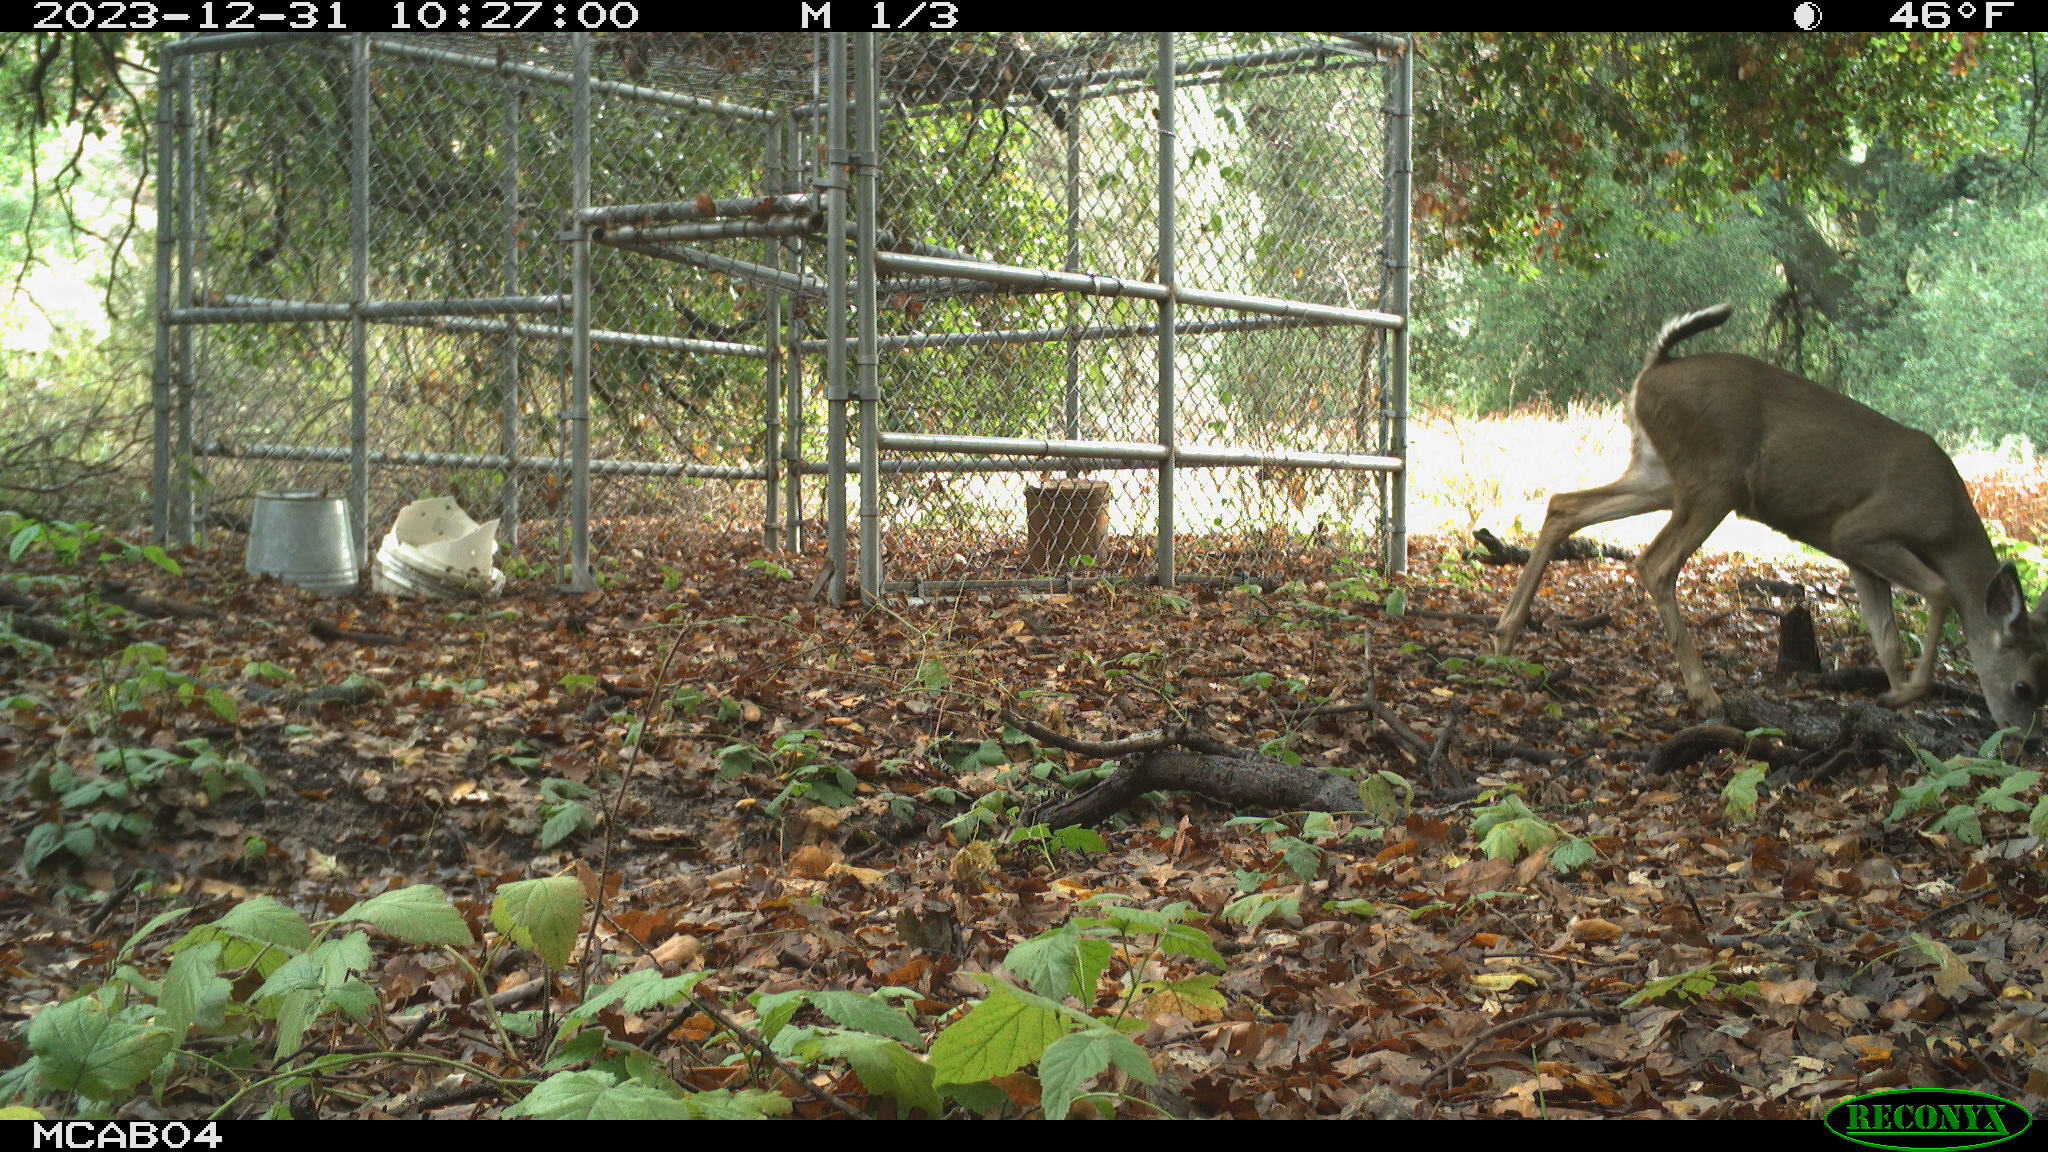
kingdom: Animalia
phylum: Chordata
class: Mammalia
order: Artiodactyla
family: Cervidae
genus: Odocoileus
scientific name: Odocoileus hemionus
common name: Mule deer
